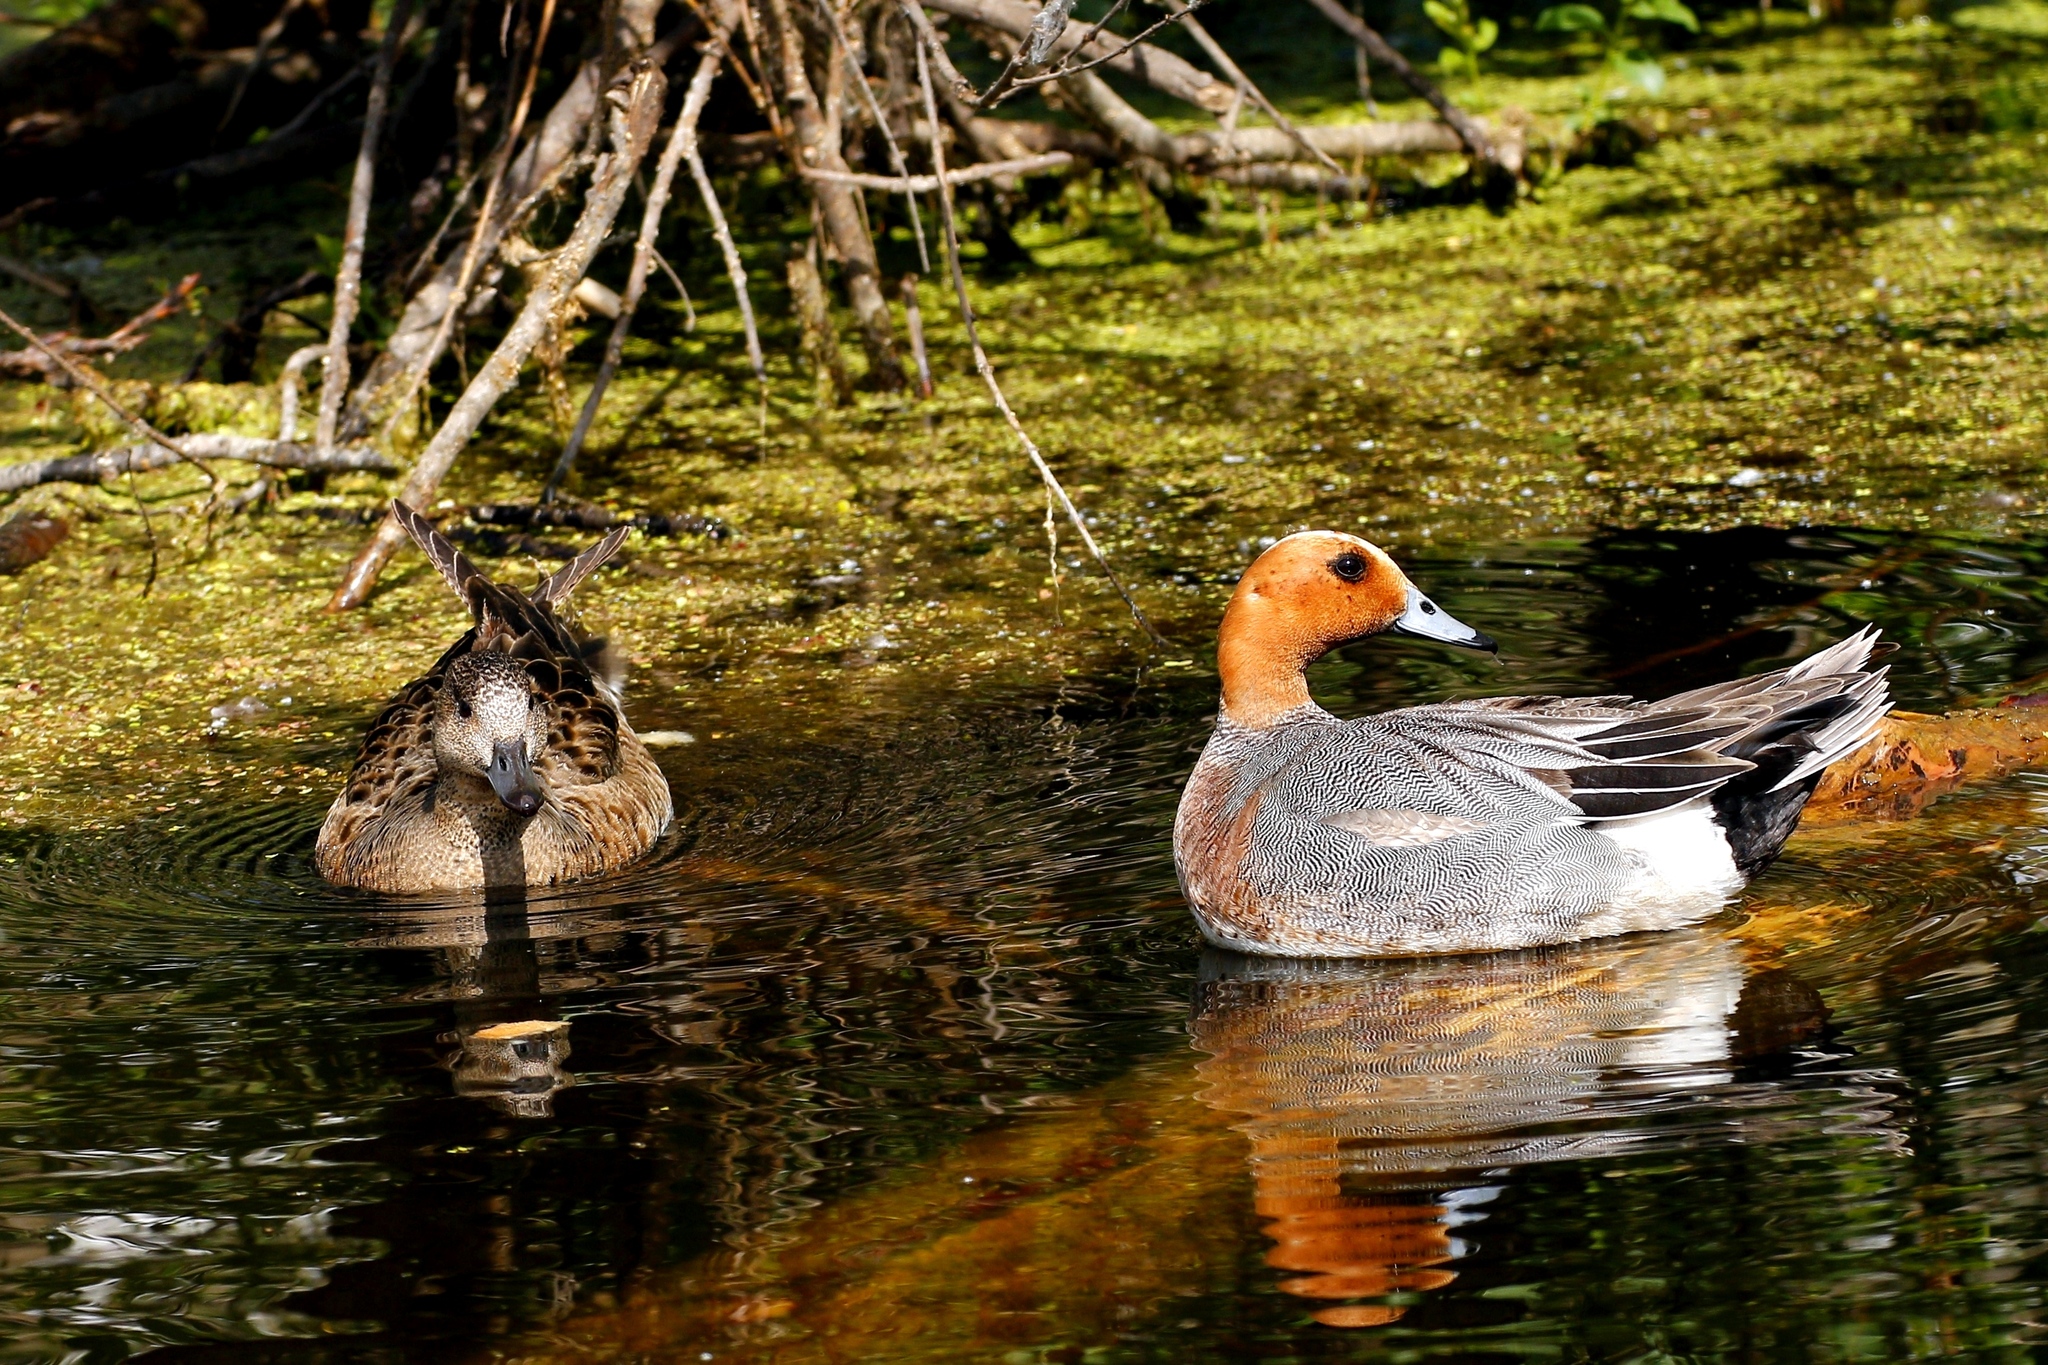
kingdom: Animalia
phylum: Chordata
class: Aves
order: Anseriformes
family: Anatidae
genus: Mareca
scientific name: Mareca penelope
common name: Eurasian wigeon
